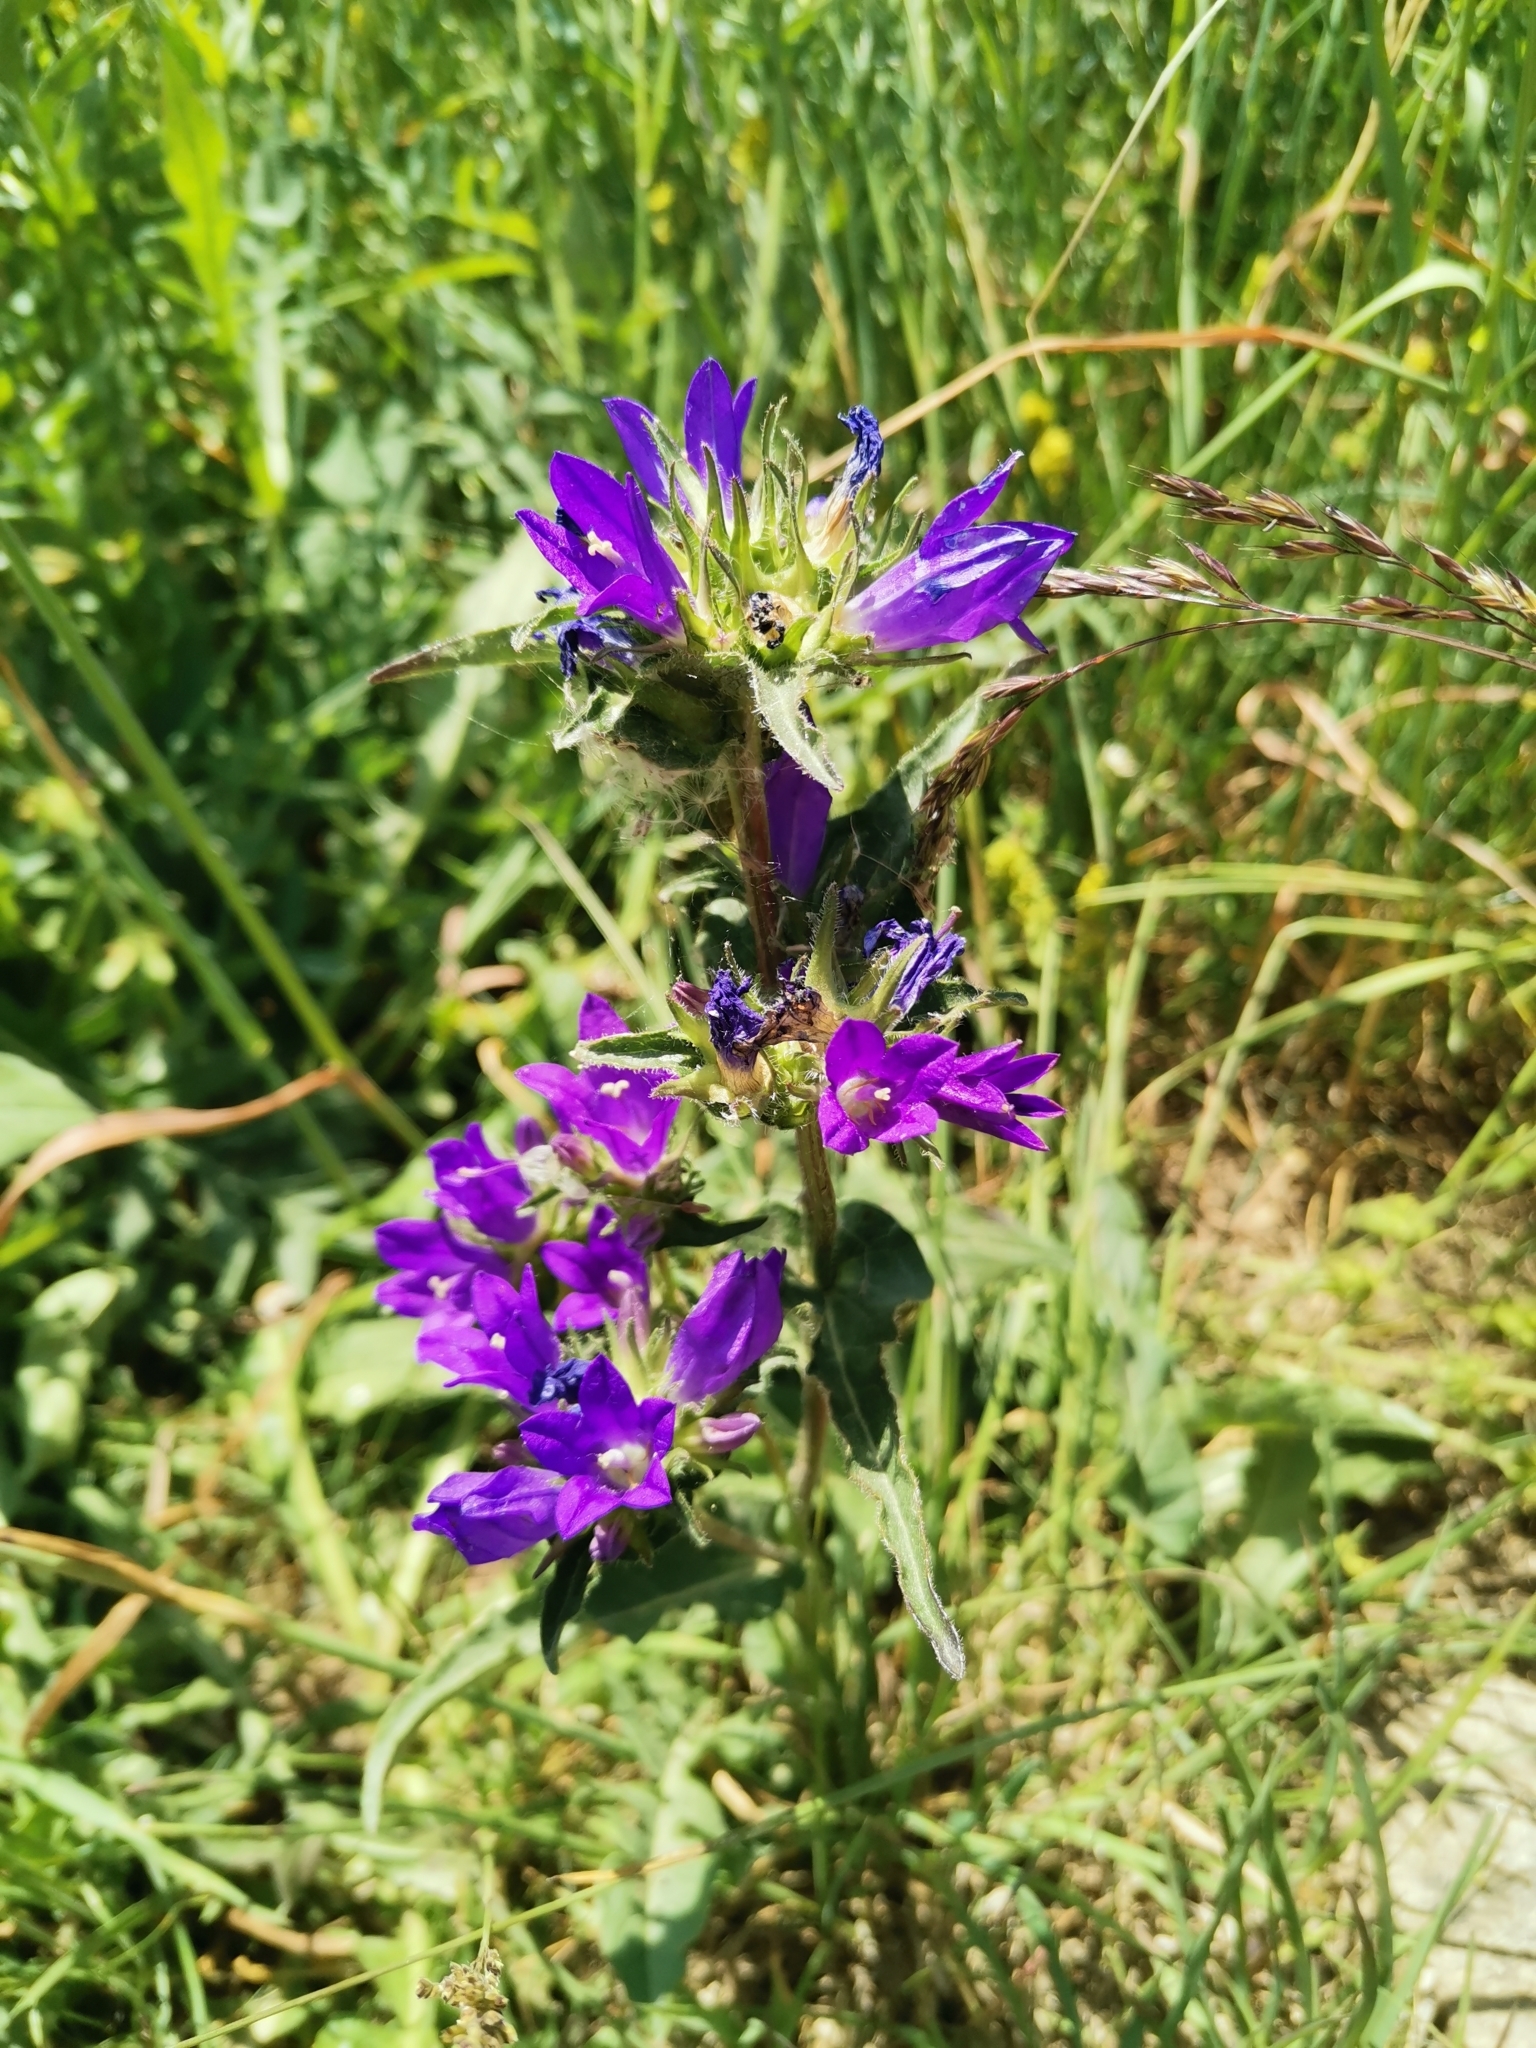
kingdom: Plantae
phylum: Tracheophyta
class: Magnoliopsida
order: Asterales
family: Campanulaceae
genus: Campanula
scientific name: Campanula glomerata
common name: Clustered bellflower
